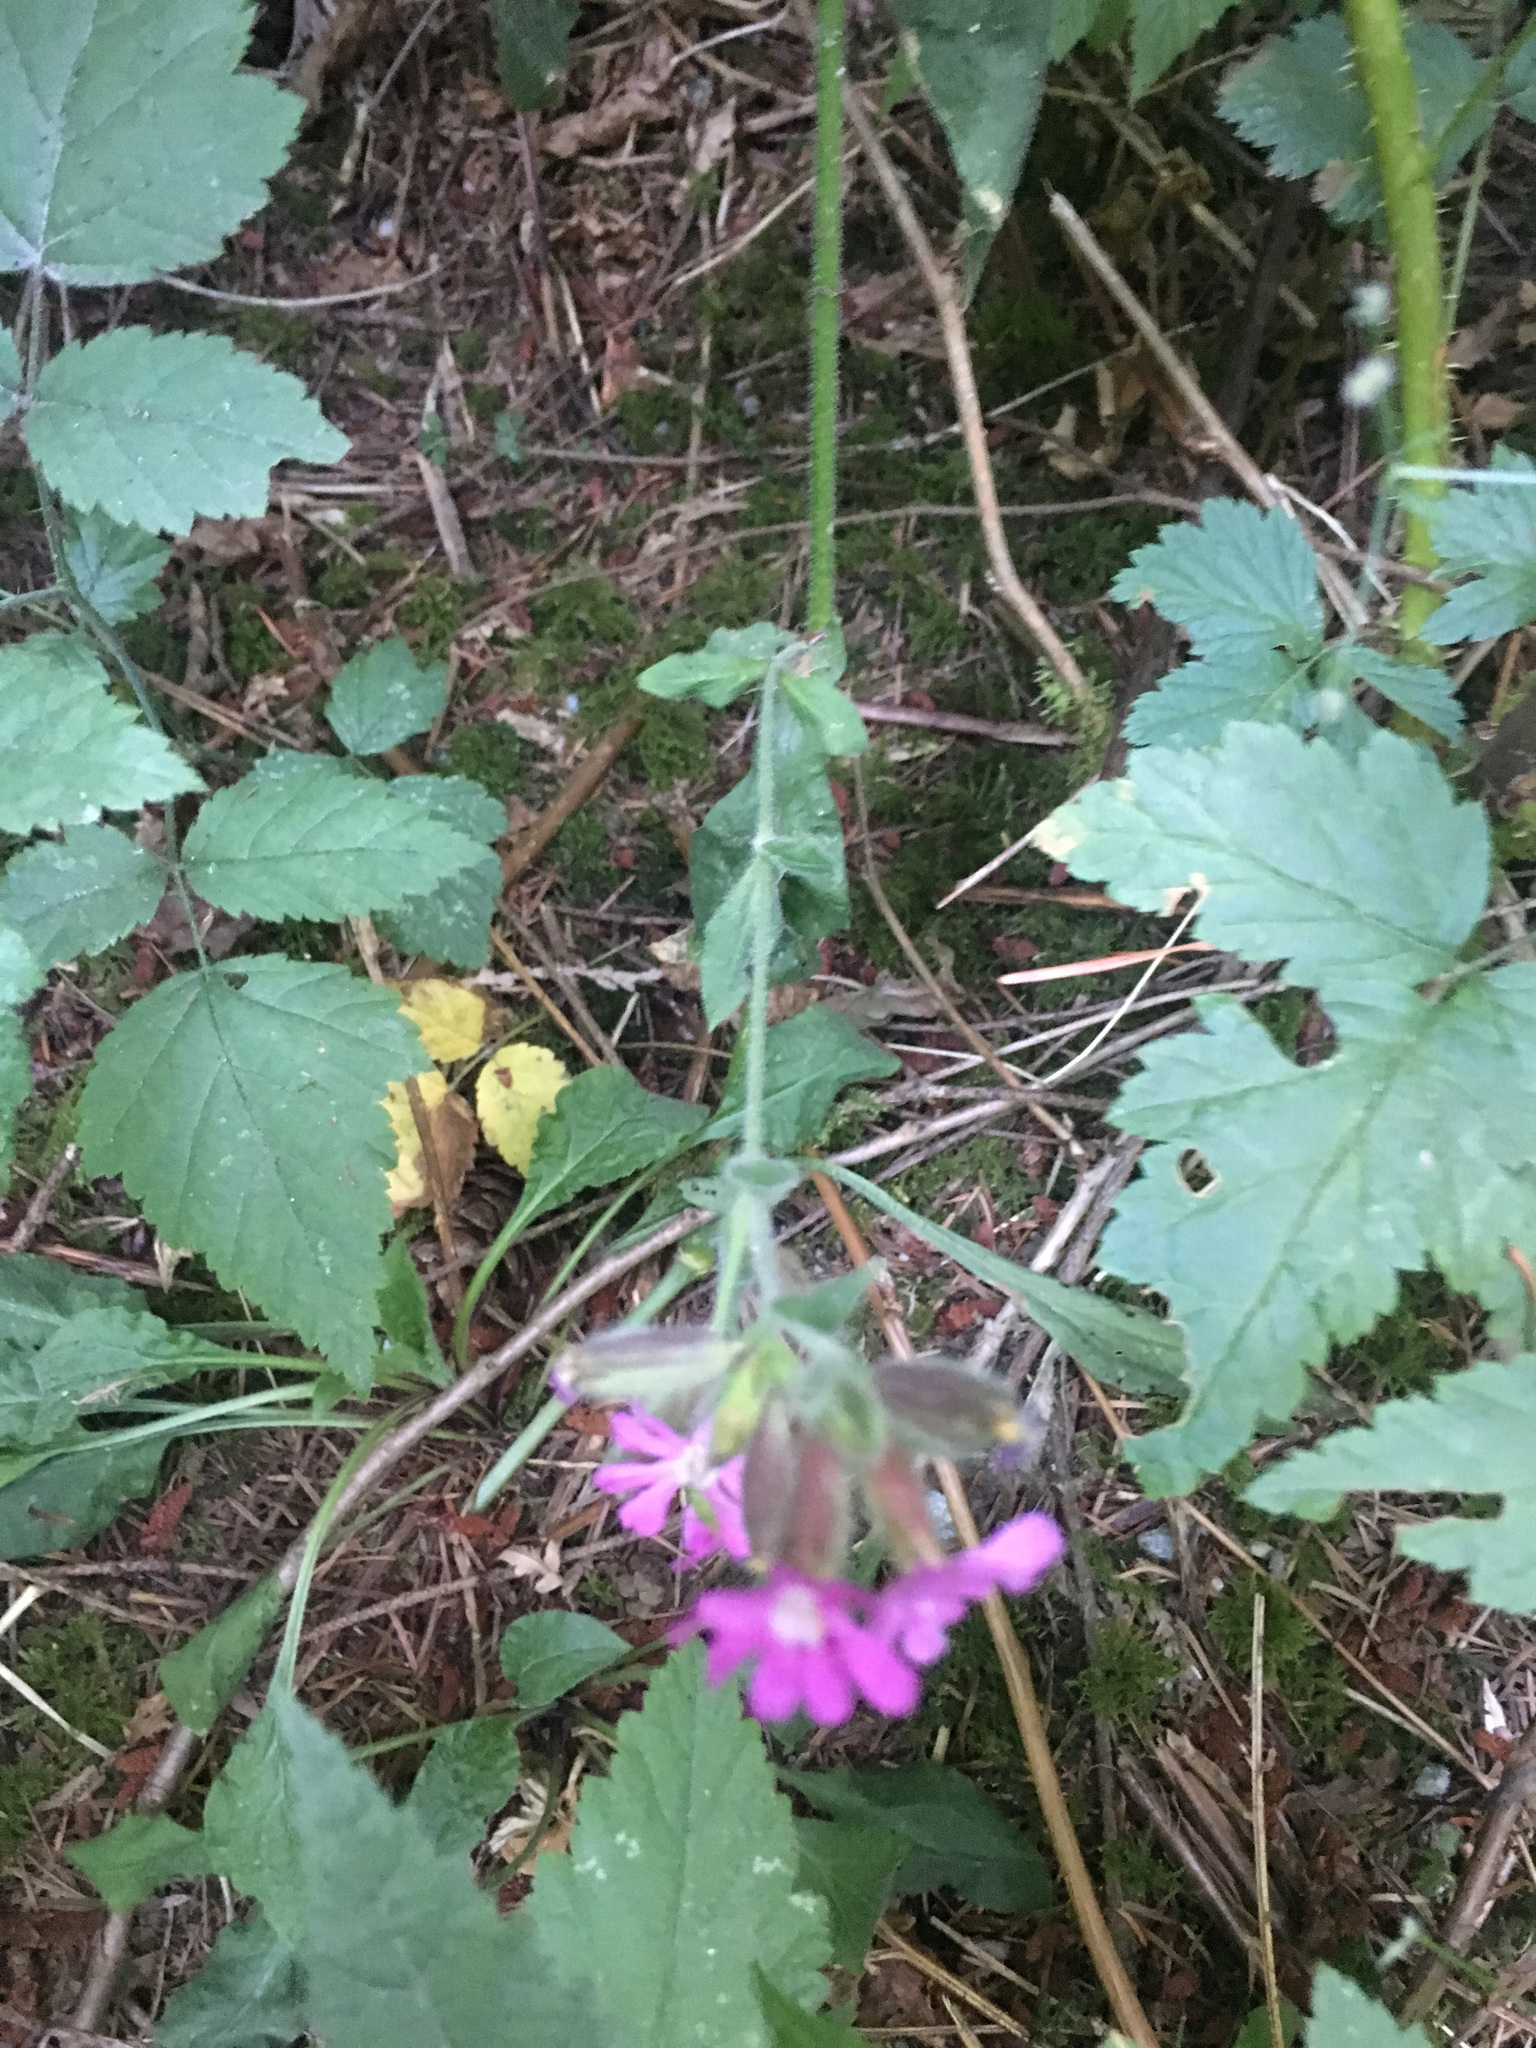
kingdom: Plantae
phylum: Tracheophyta
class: Magnoliopsida
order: Caryophyllales
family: Caryophyllaceae
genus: Silene
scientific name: Silene dioica
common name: Red campion
